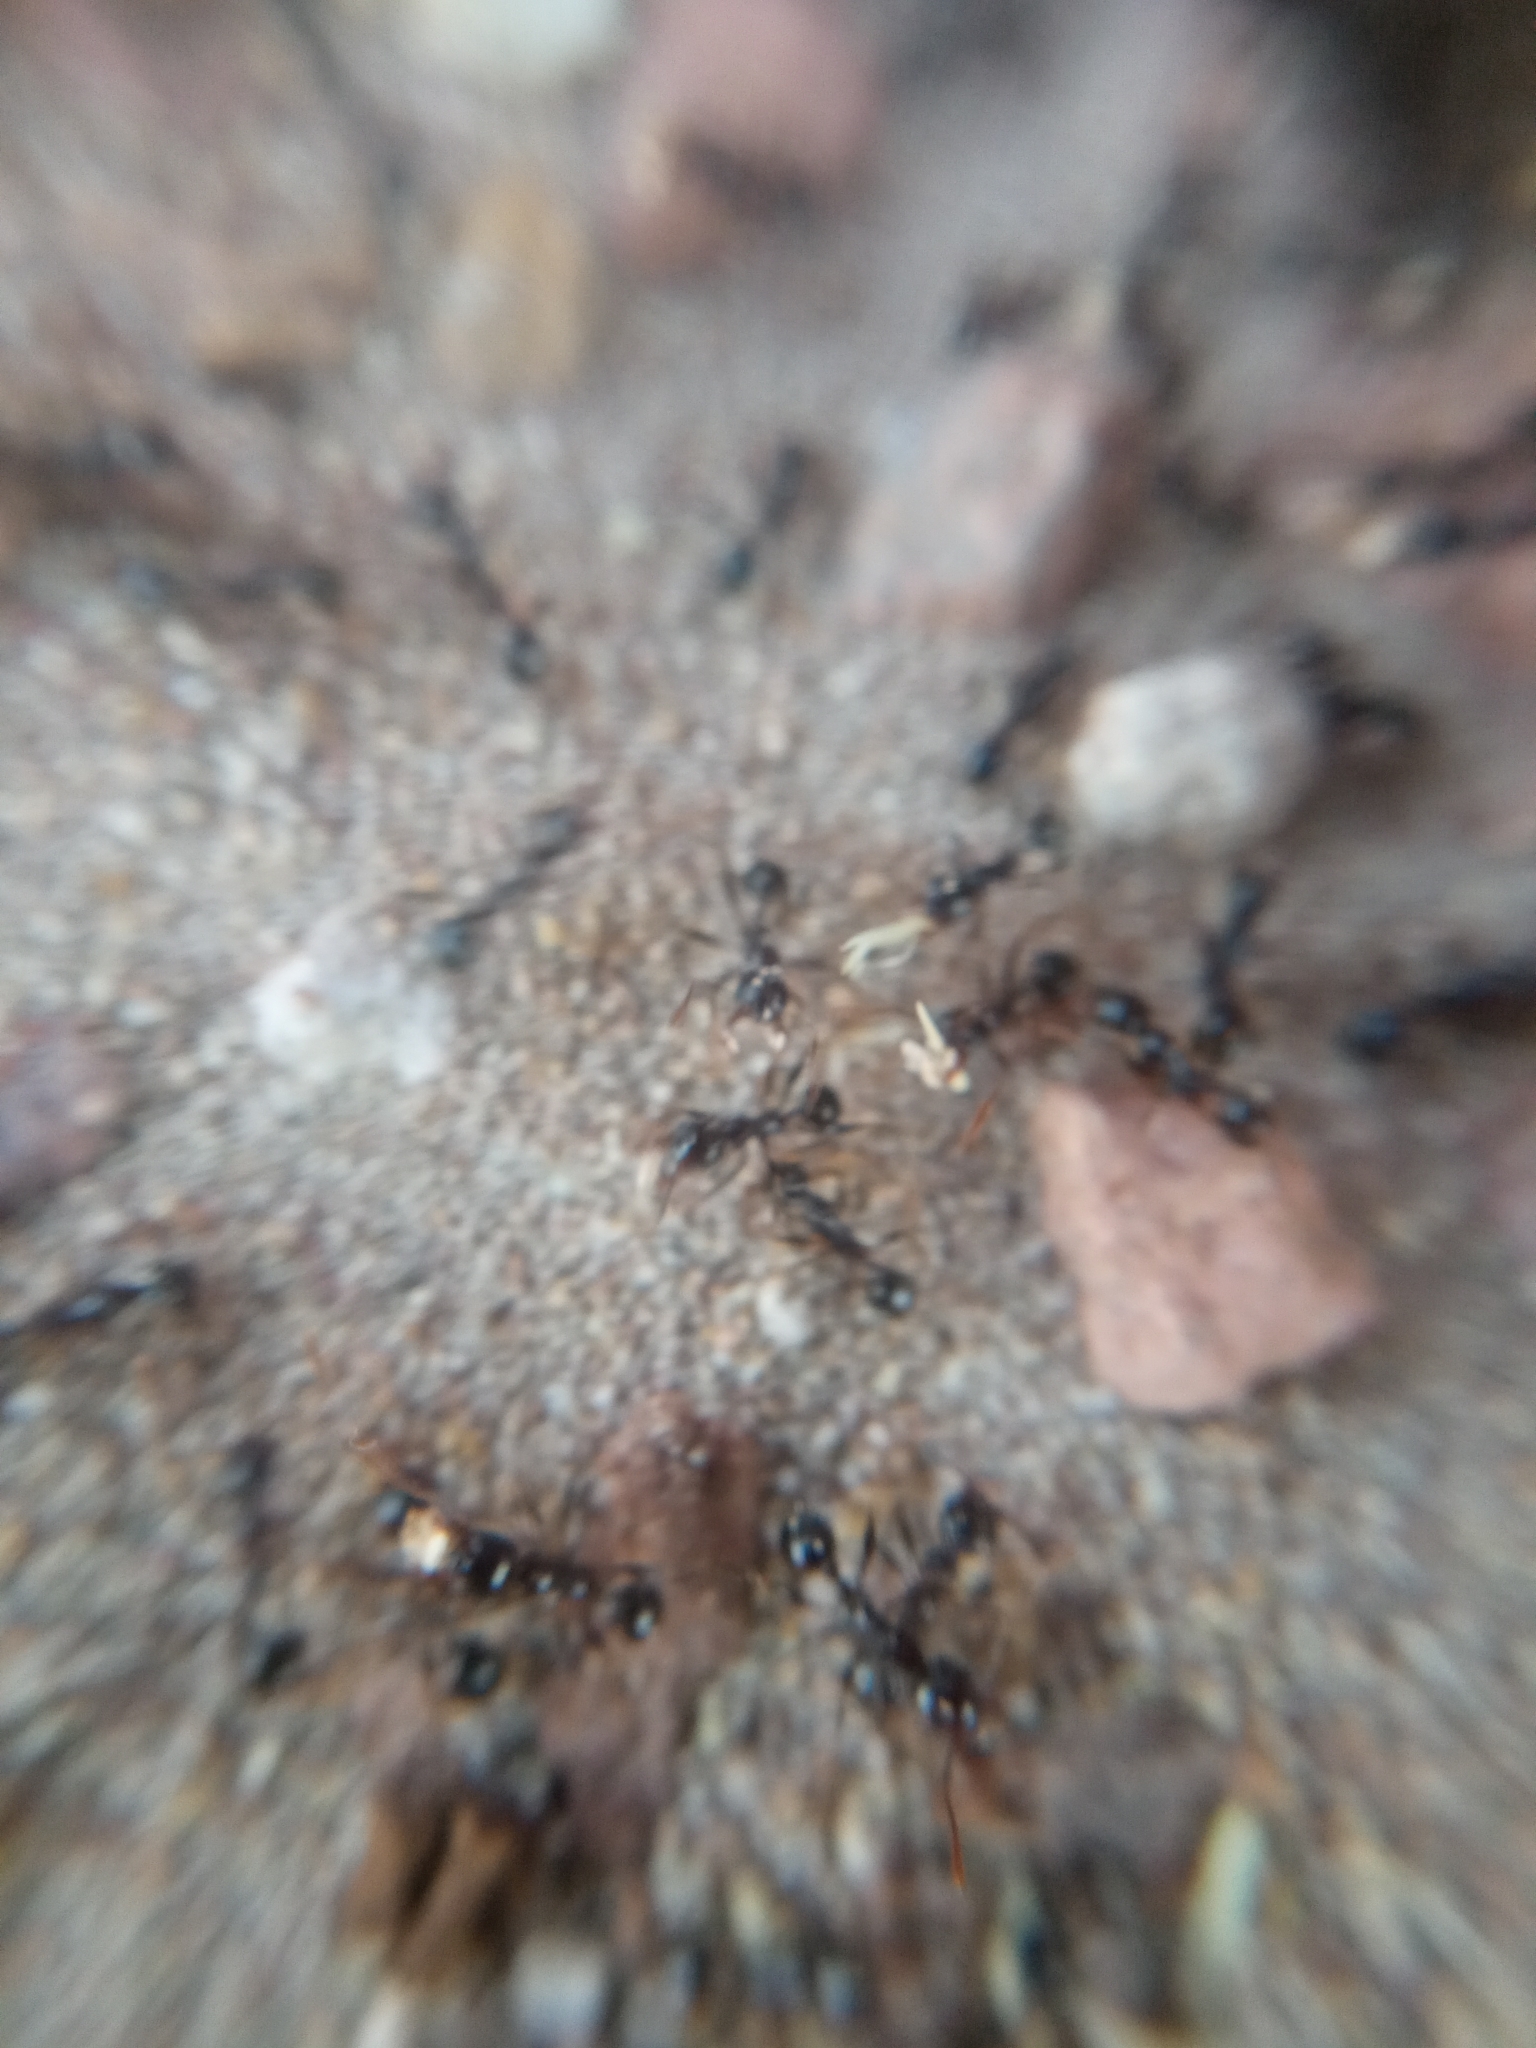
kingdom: Animalia
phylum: Arthropoda
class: Insecta
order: Hymenoptera
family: Formicidae
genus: Pheidole
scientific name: Pheidole rhea
